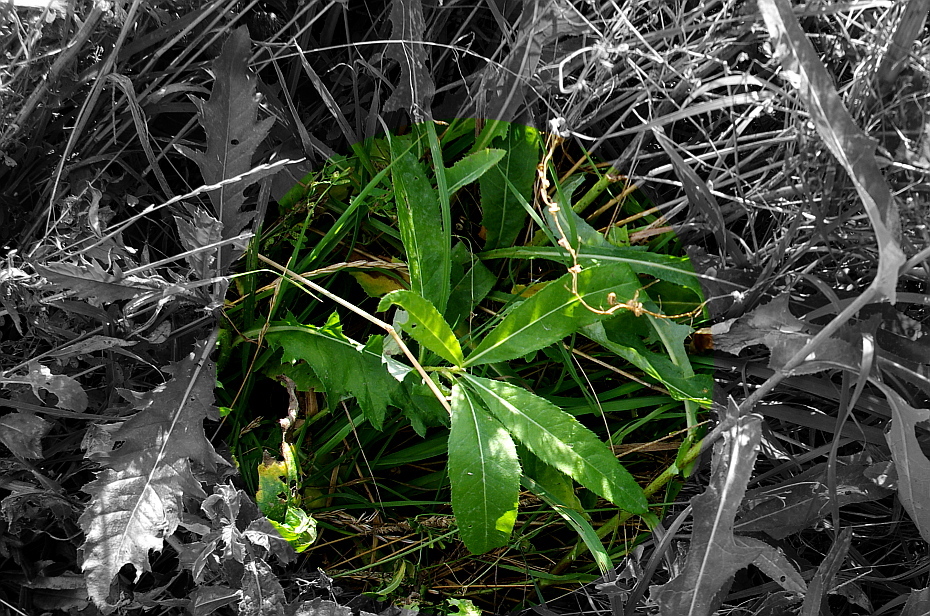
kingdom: Plantae
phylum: Tracheophyta
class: Magnoliopsida
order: Asterales
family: Asteraceae
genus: Cirsium
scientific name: Cirsium arvense
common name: Creeping thistle
